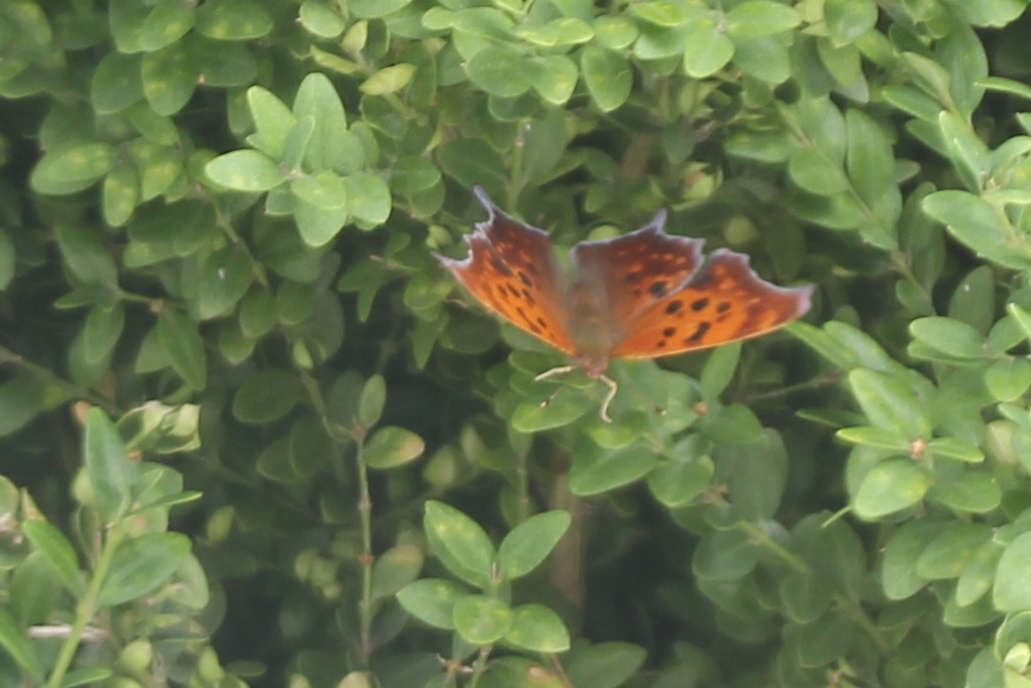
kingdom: Animalia
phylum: Arthropoda
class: Insecta
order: Lepidoptera
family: Nymphalidae
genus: Polygonia
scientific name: Polygonia interrogationis
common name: Question mark
